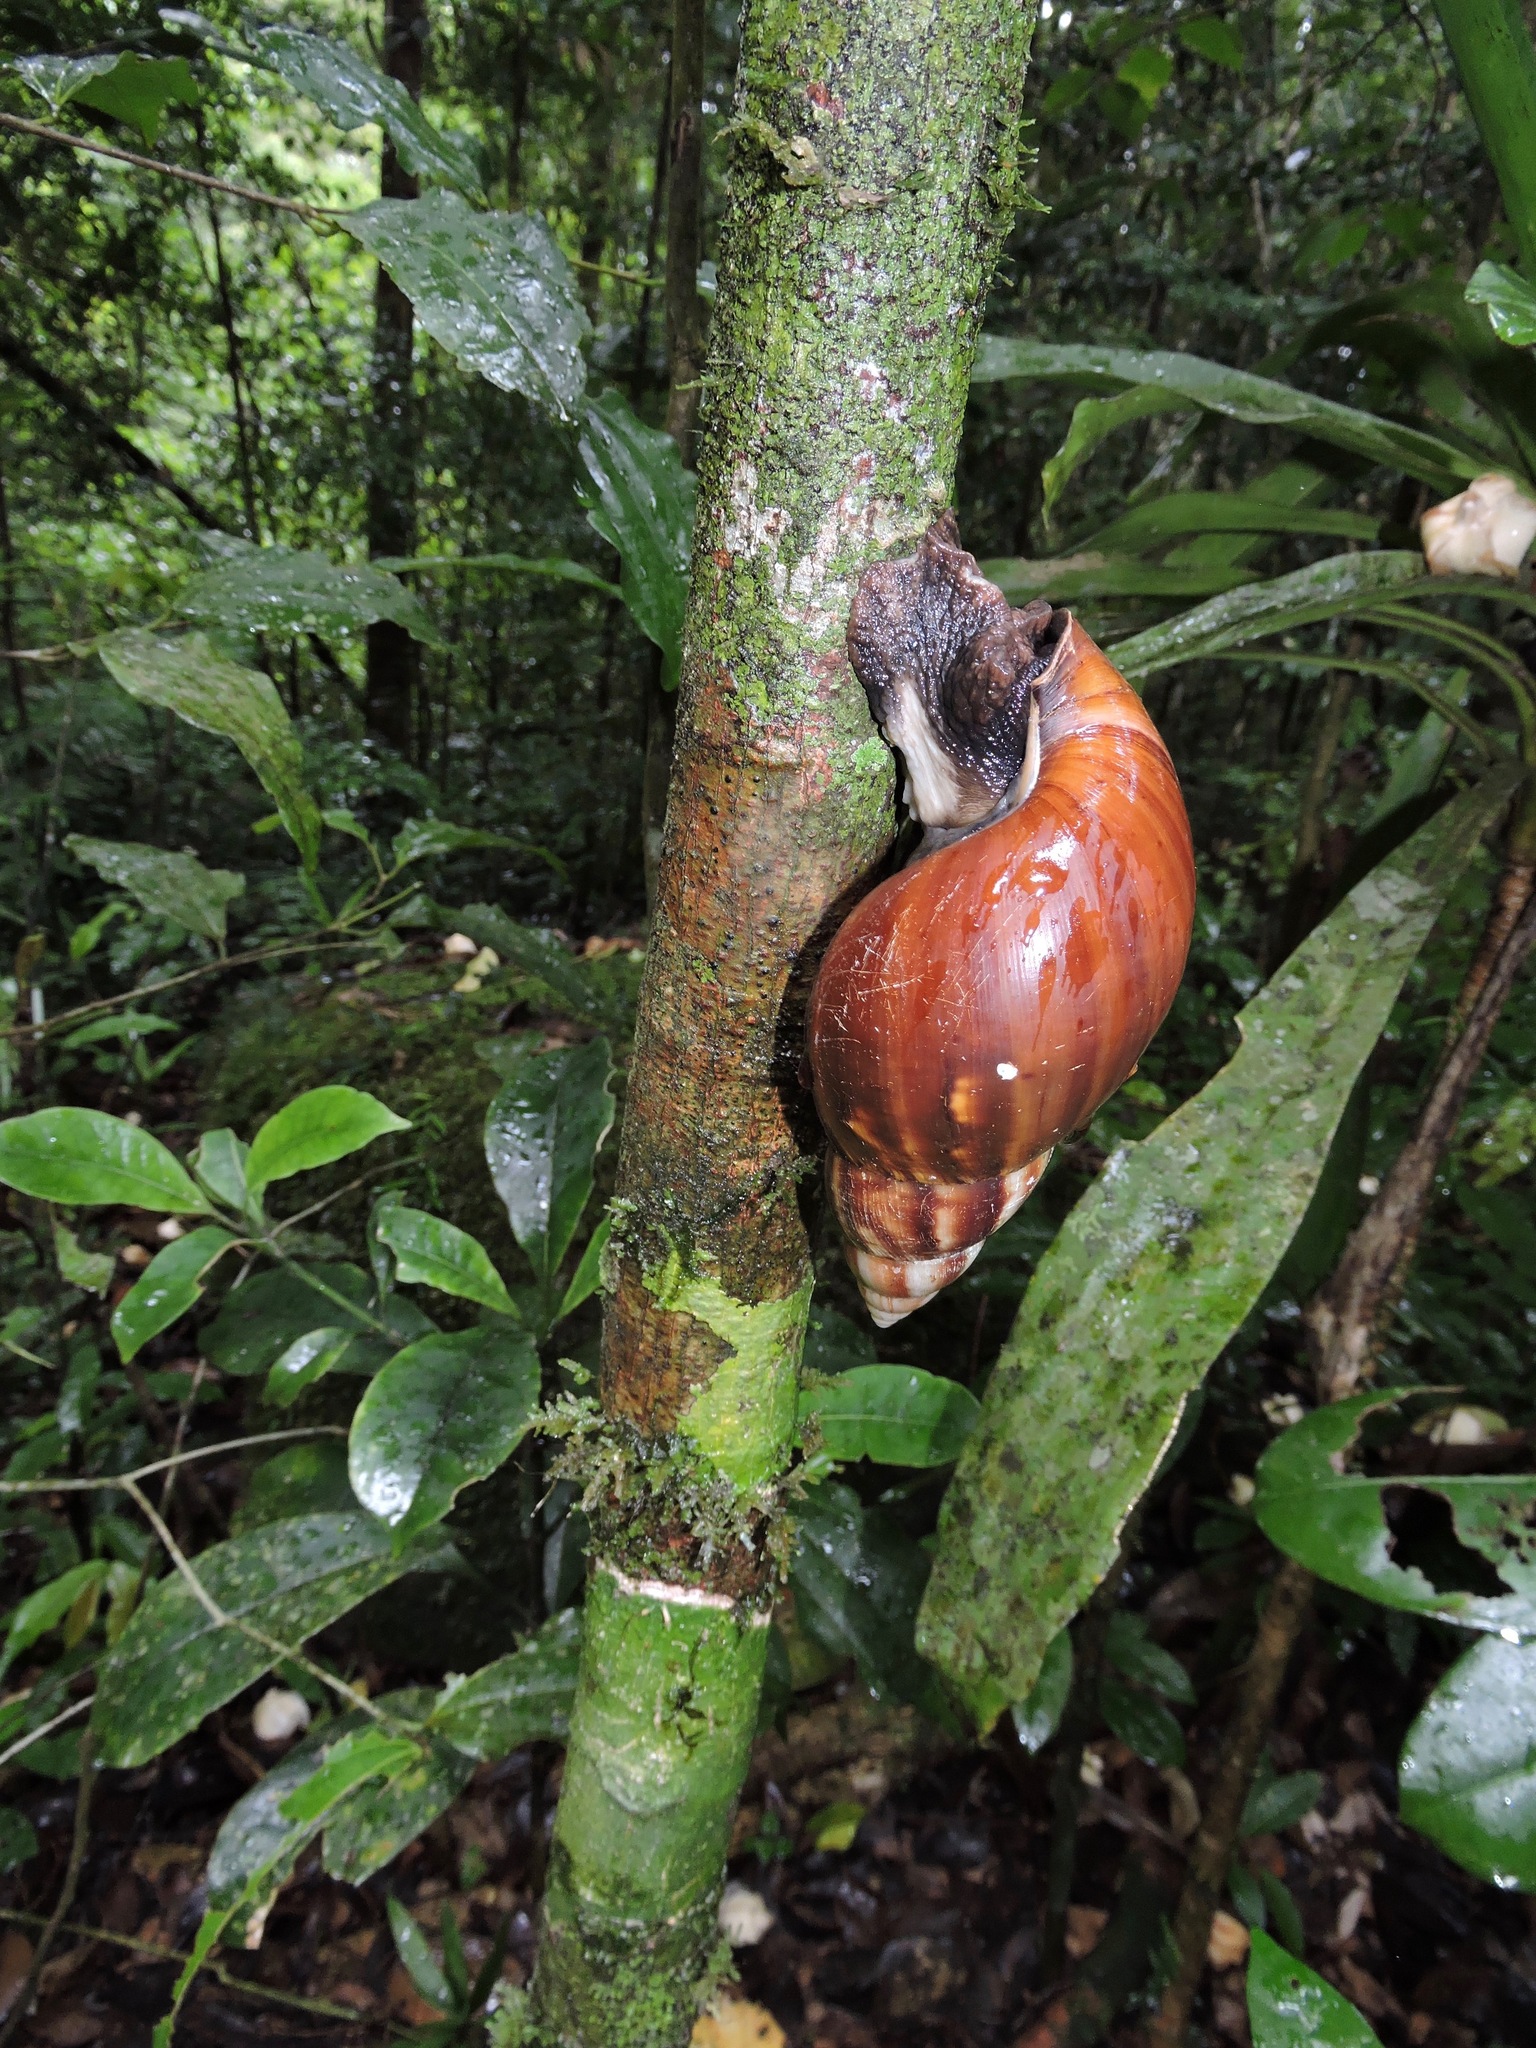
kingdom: Animalia
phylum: Mollusca
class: Gastropoda
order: Stylommatophora
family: Achatinidae
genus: Lissachatina
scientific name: Lissachatina fulica
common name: Giant african snail
